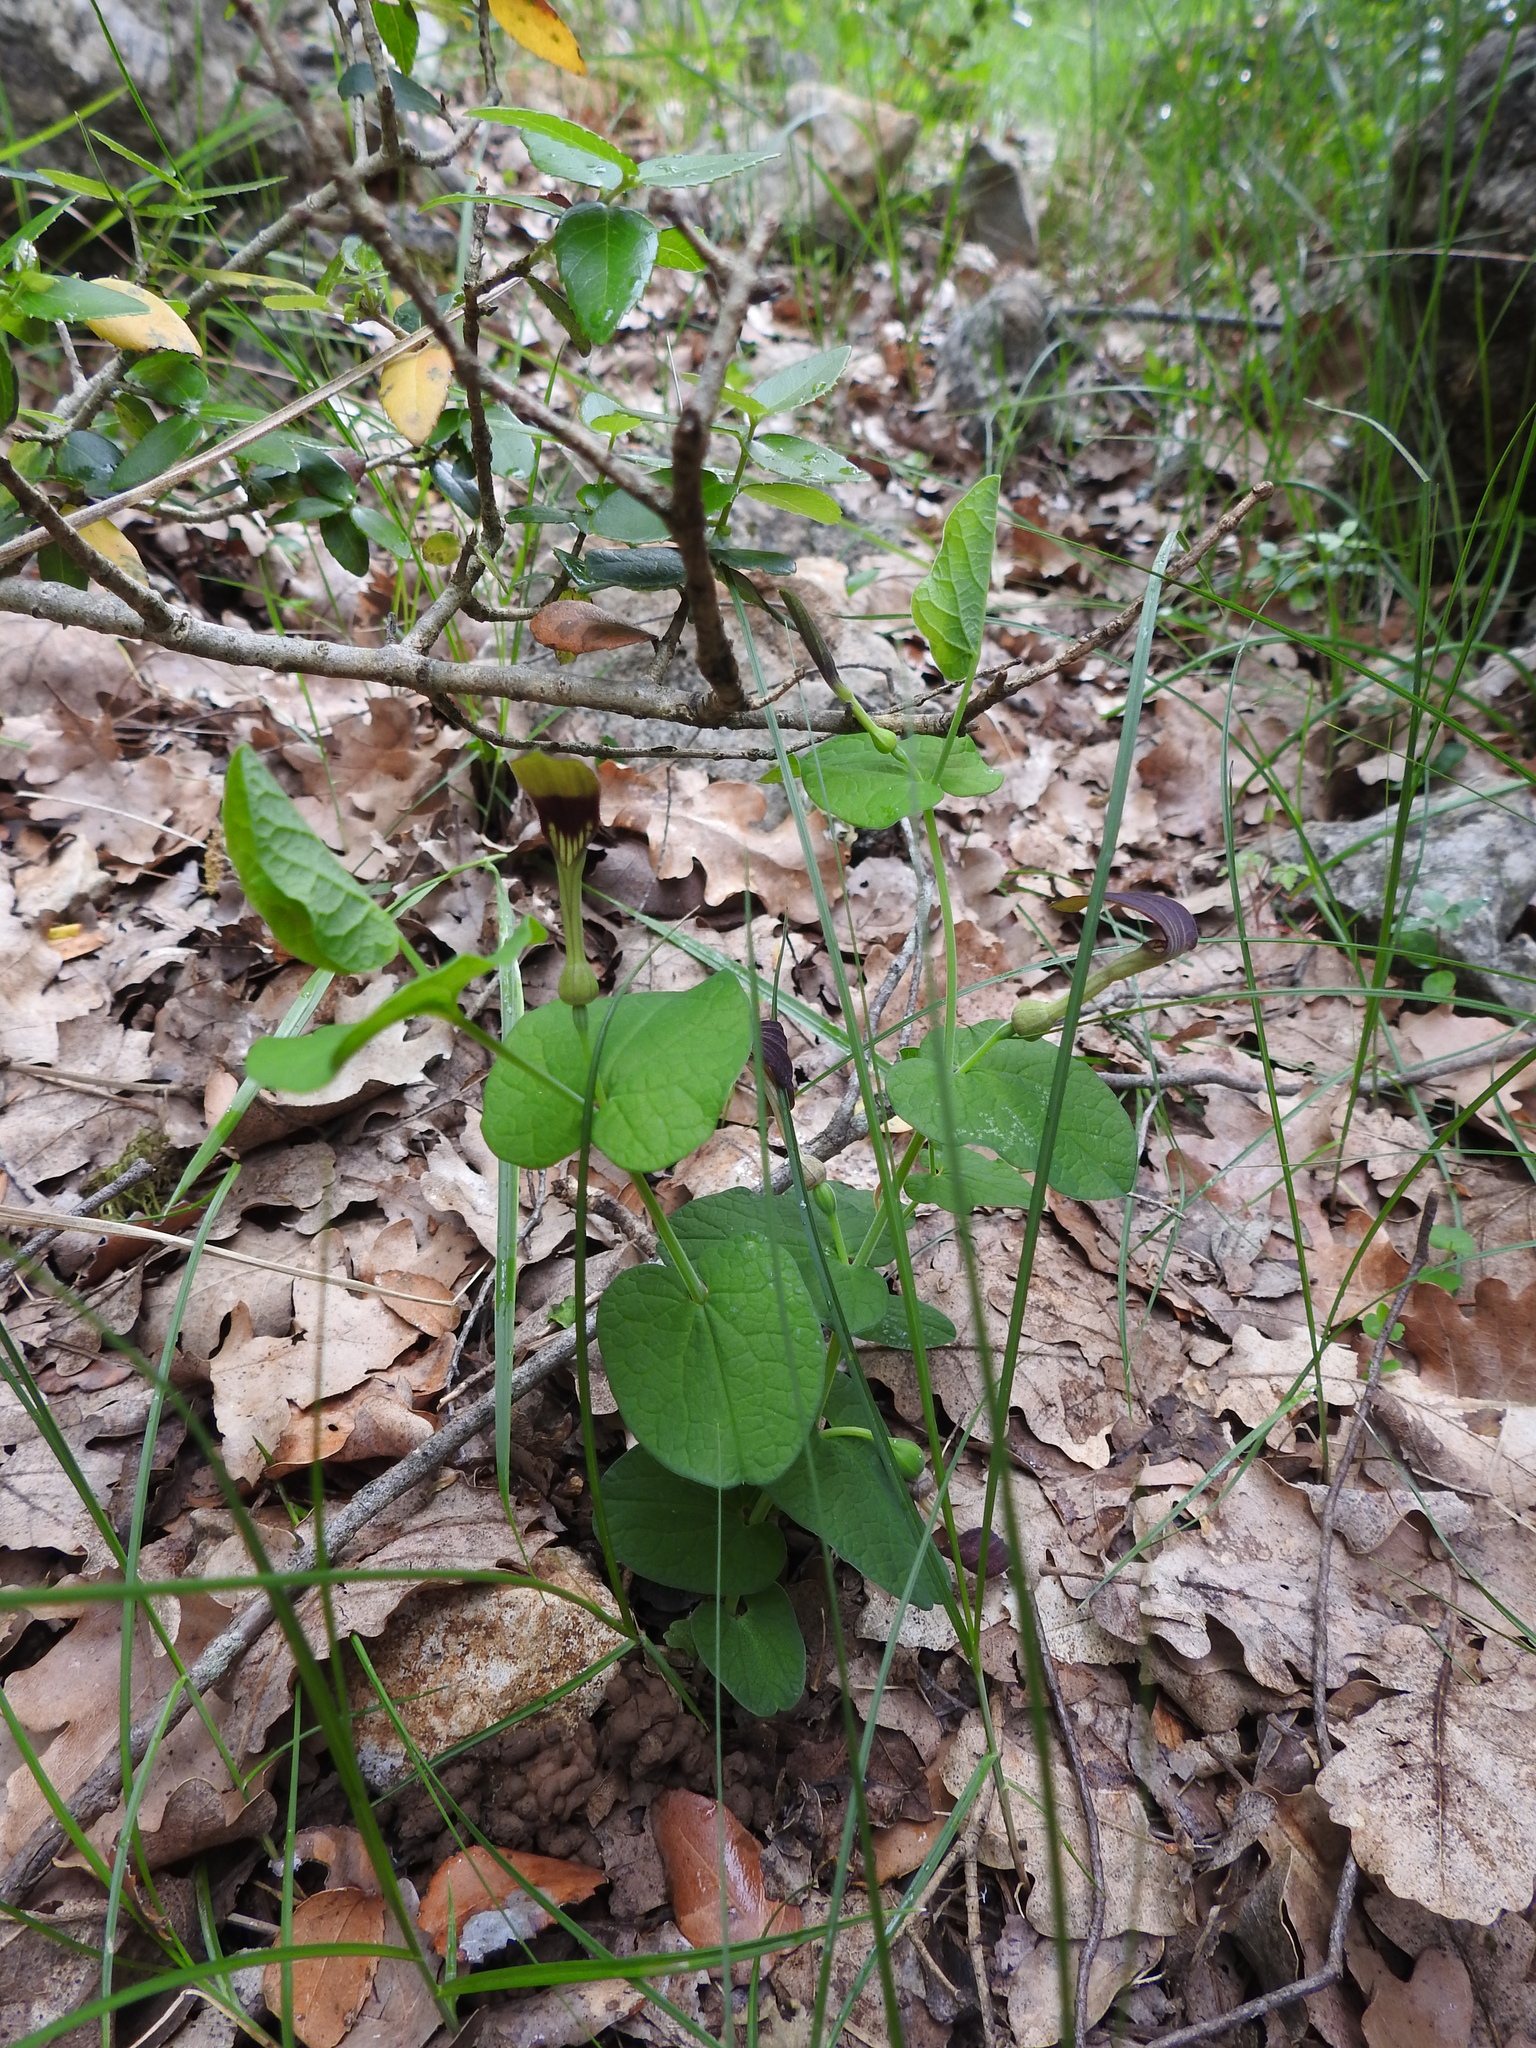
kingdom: Plantae
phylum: Tracheophyta
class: Magnoliopsida
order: Piperales
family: Aristolochiaceae
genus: Aristolochia
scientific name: Aristolochia rotunda
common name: Smearwort
